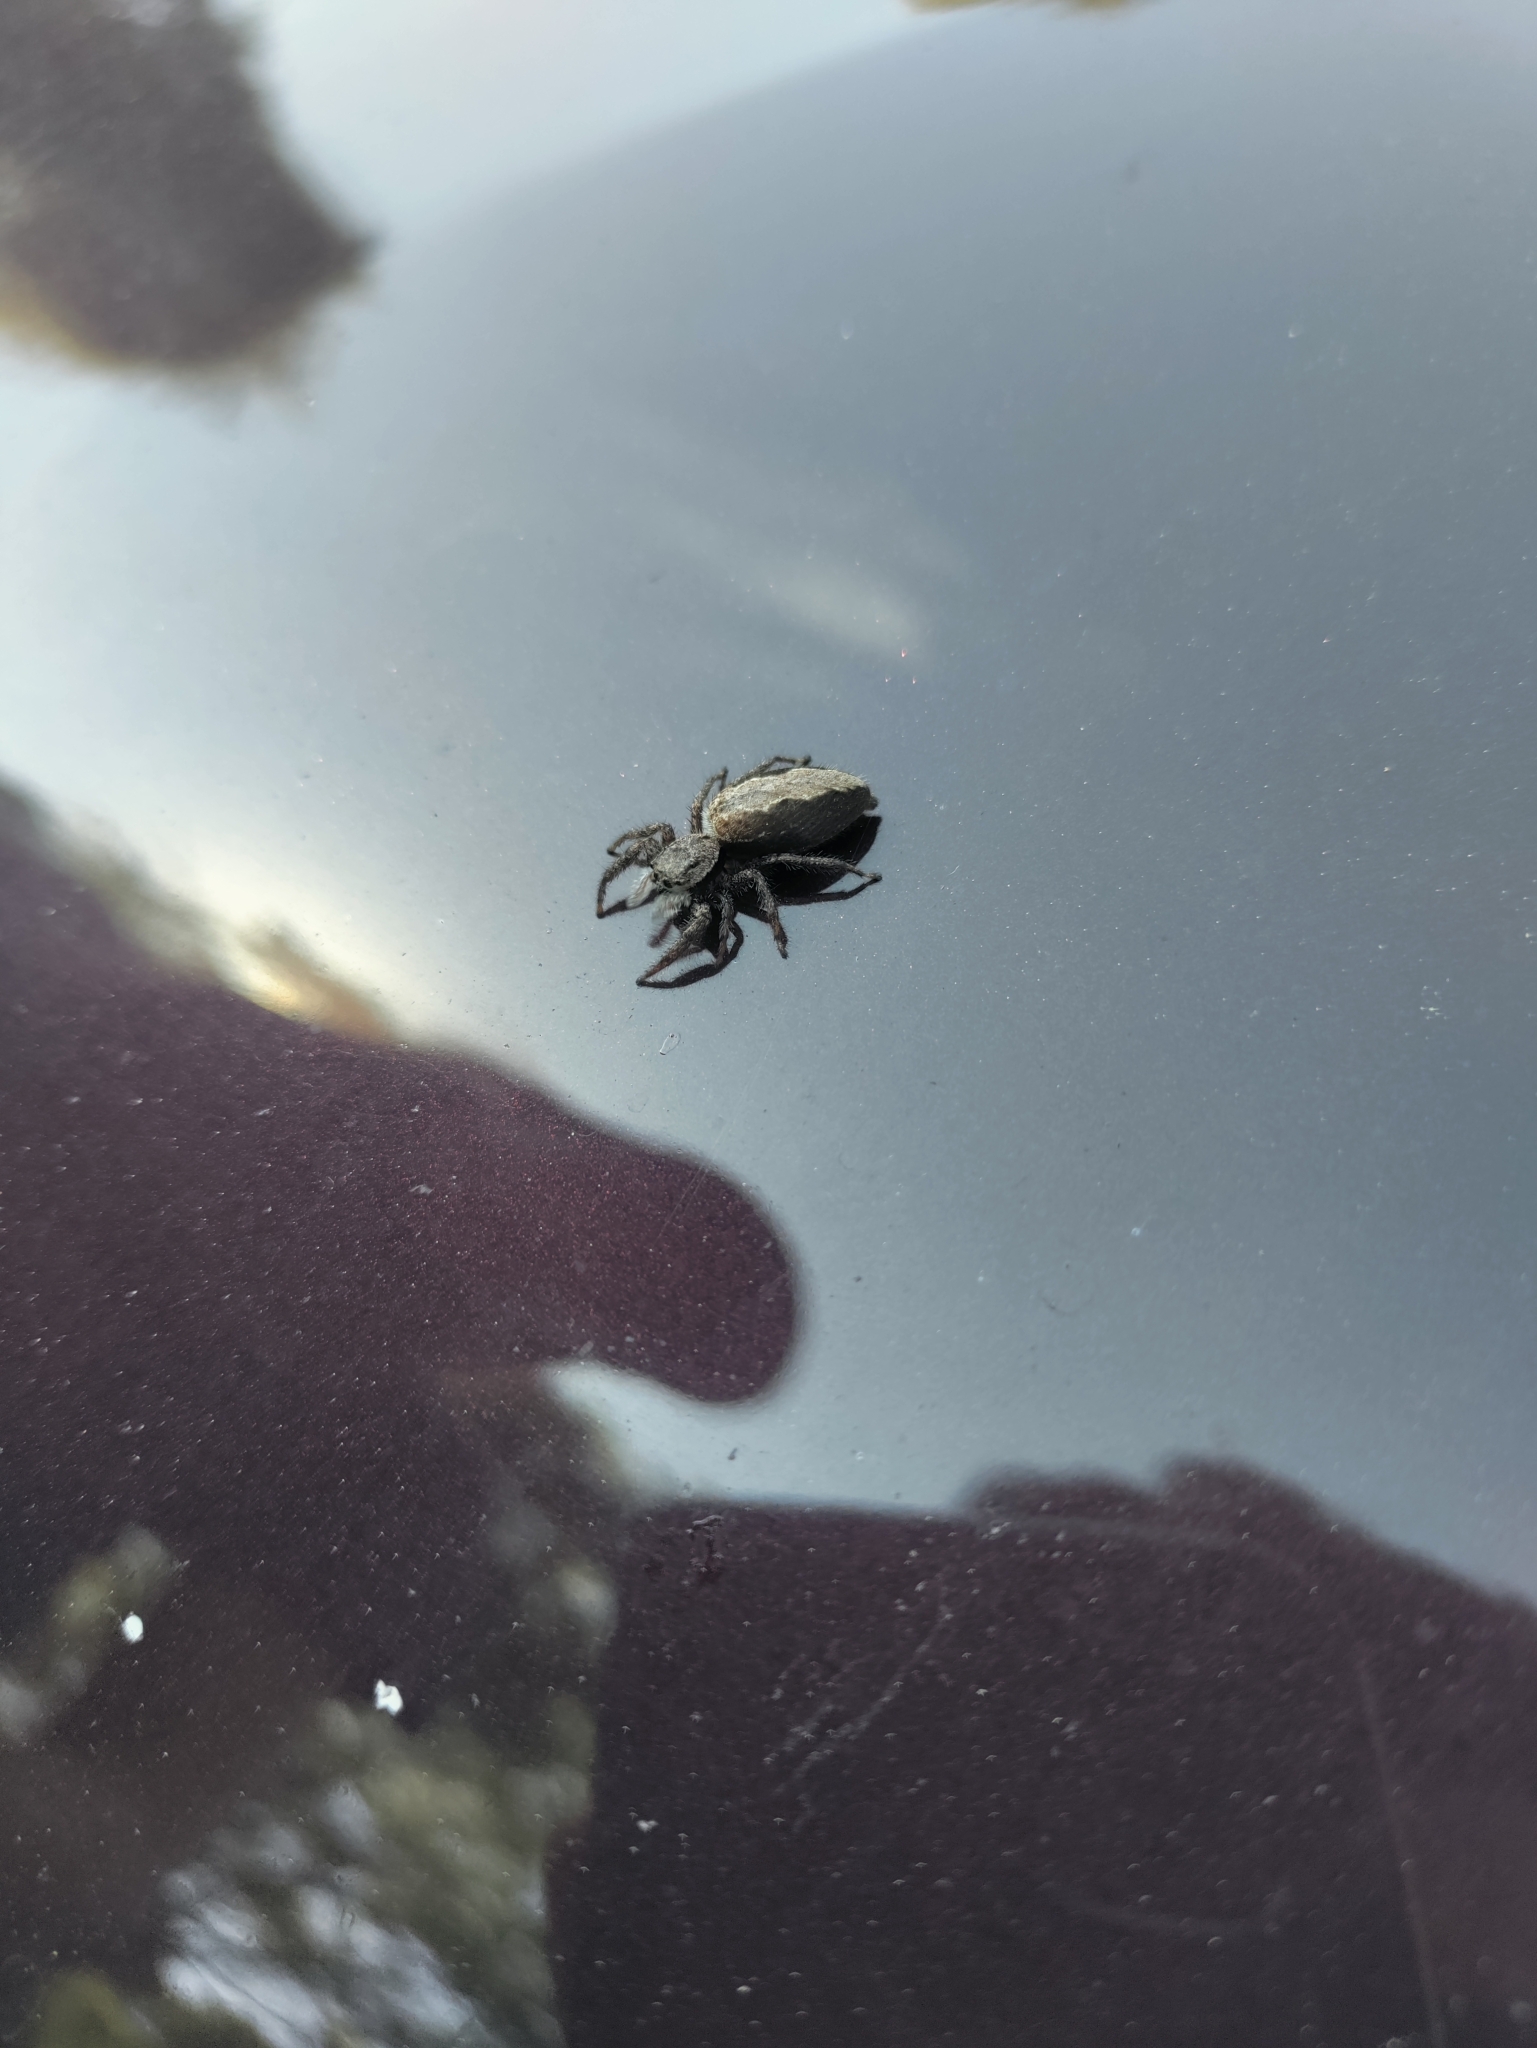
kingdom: Animalia
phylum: Arthropoda
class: Arachnida
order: Araneae
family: Salticidae
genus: Platycryptus
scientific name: Platycryptus undatus
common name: Tan jumping spider
